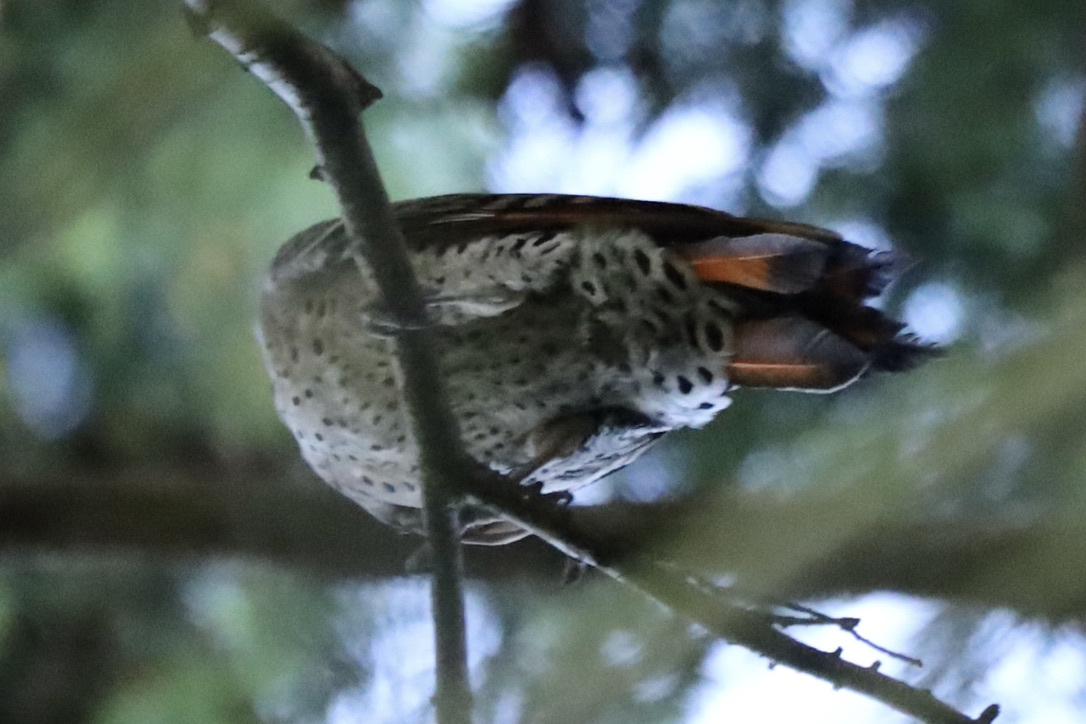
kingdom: Animalia
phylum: Chordata
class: Aves
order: Piciformes
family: Picidae
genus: Colaptes
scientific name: Colaptes auratus
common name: Northern flicker
